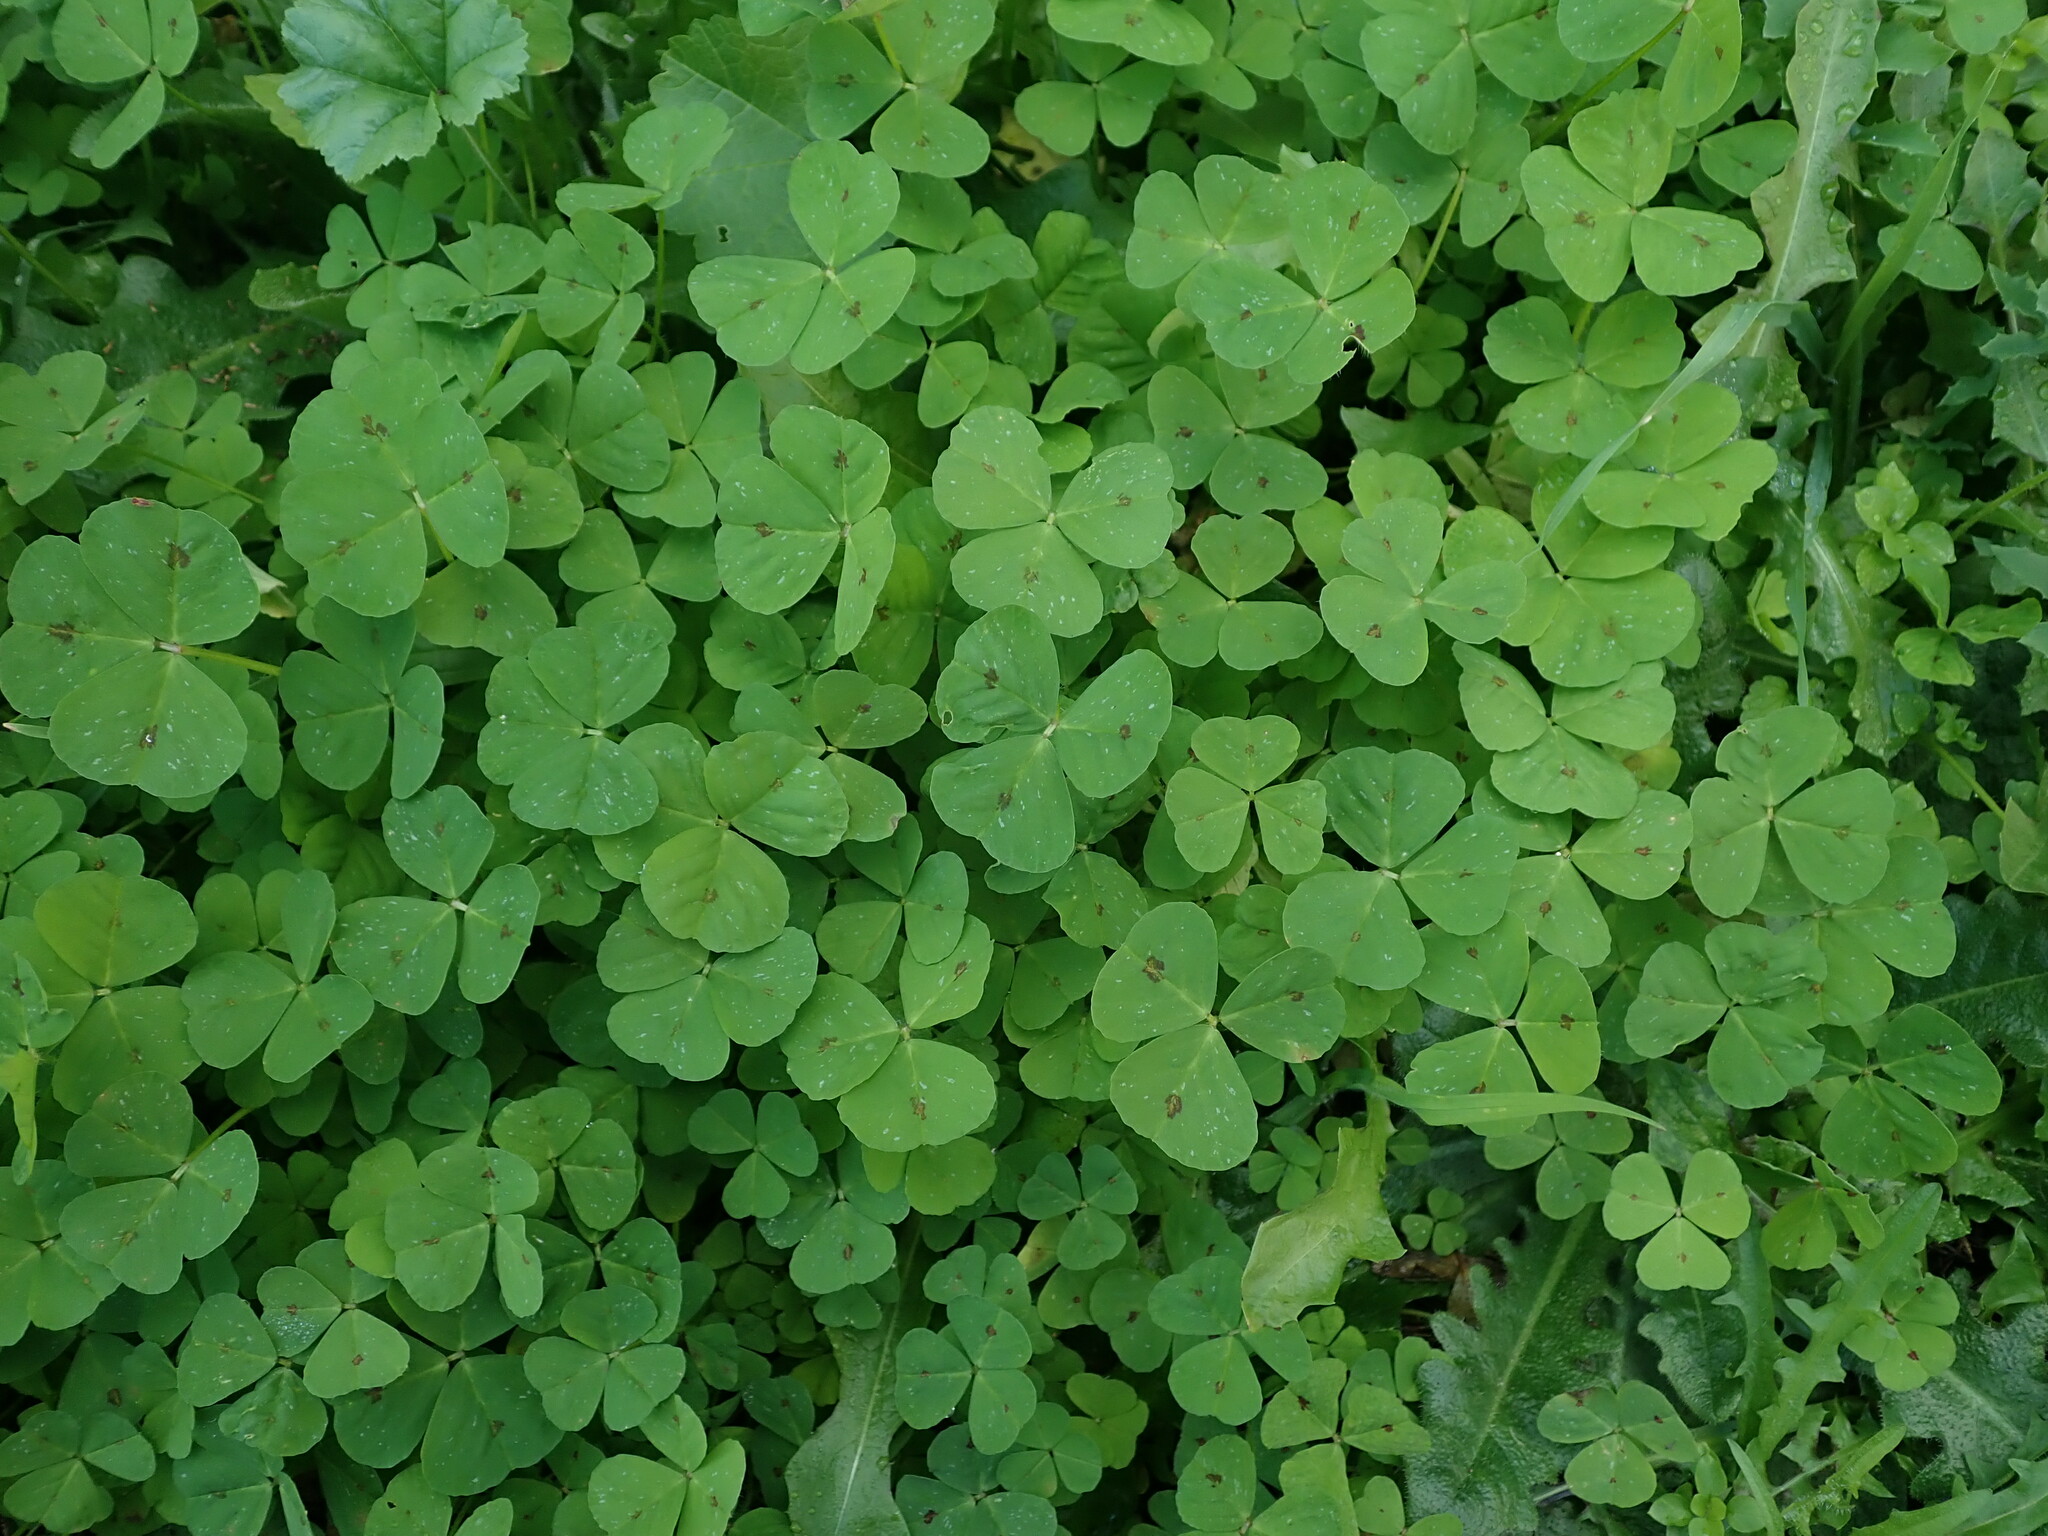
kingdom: Plantae
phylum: Tracheophyta
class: Magnoliopsida
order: Fabales
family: Fabaceae
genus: Medicago
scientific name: Medicago arabica
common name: Spotted medick
